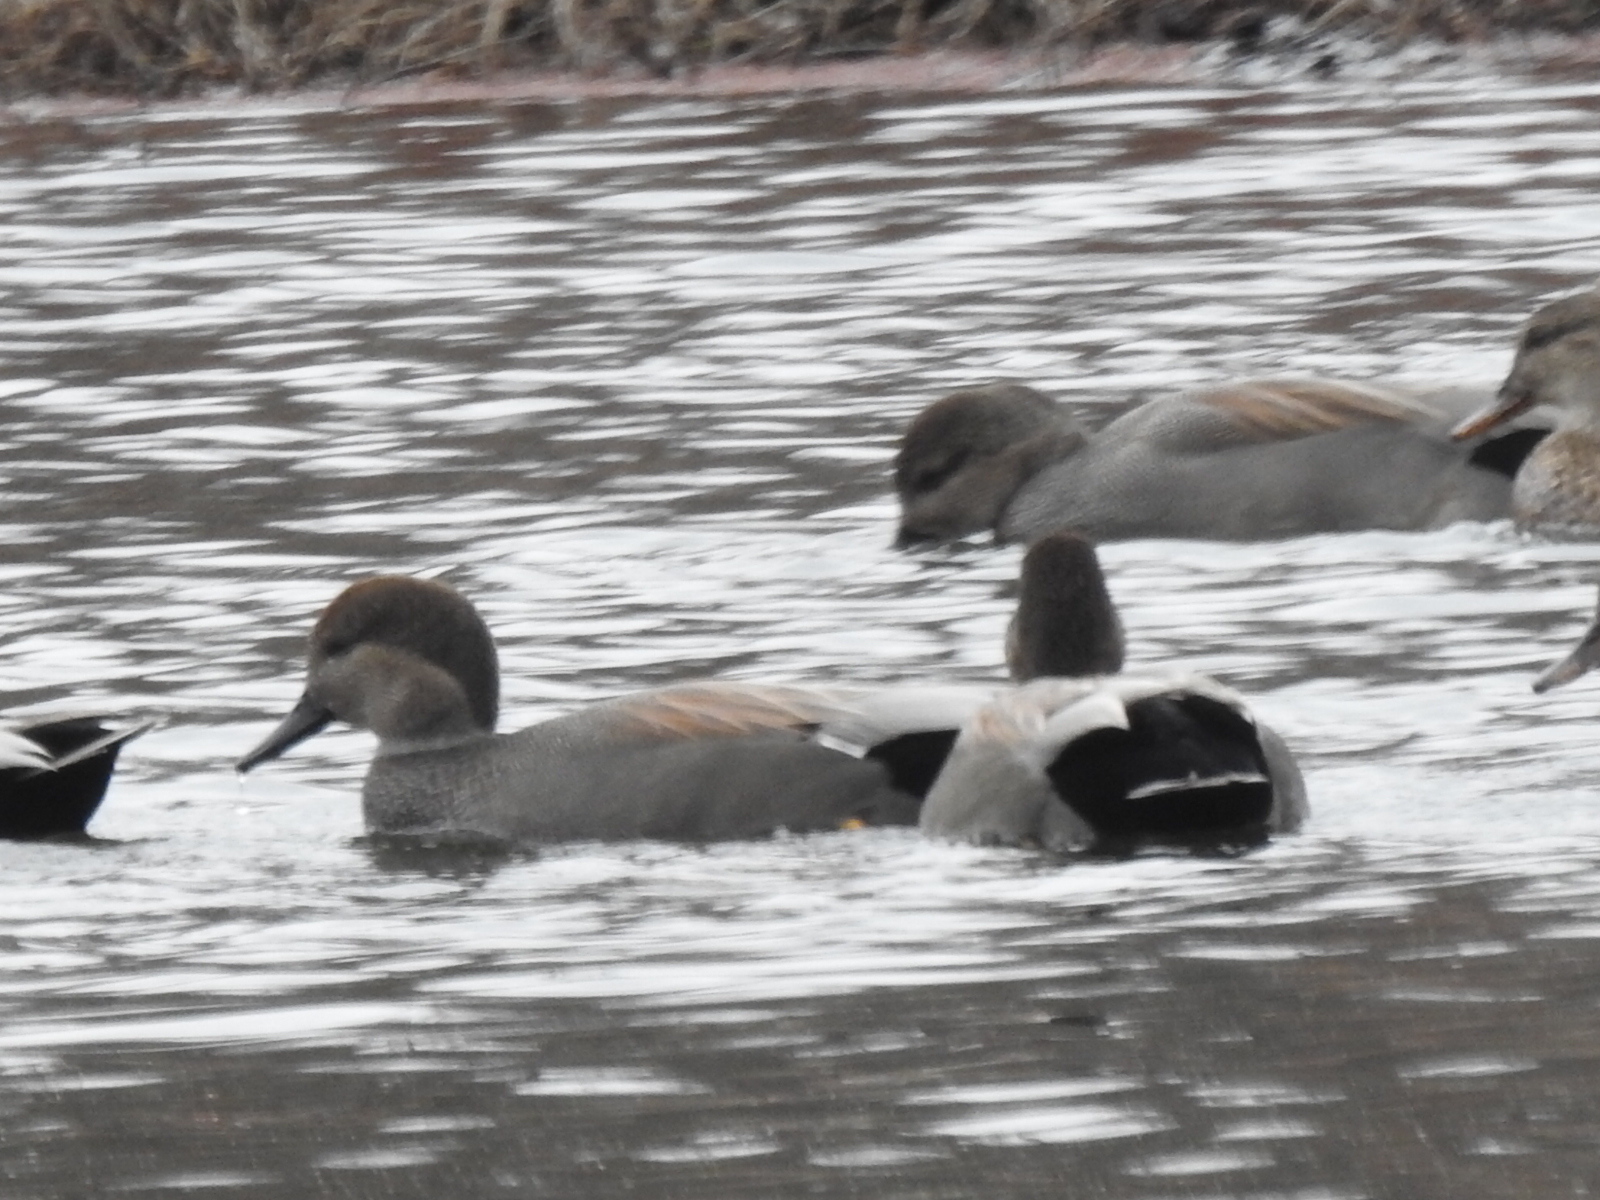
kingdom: Animalia
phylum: Chordata
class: Aves
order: Anseriformes
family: Anatidae
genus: Mareca
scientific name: Mareca strepera
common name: Gadwall
